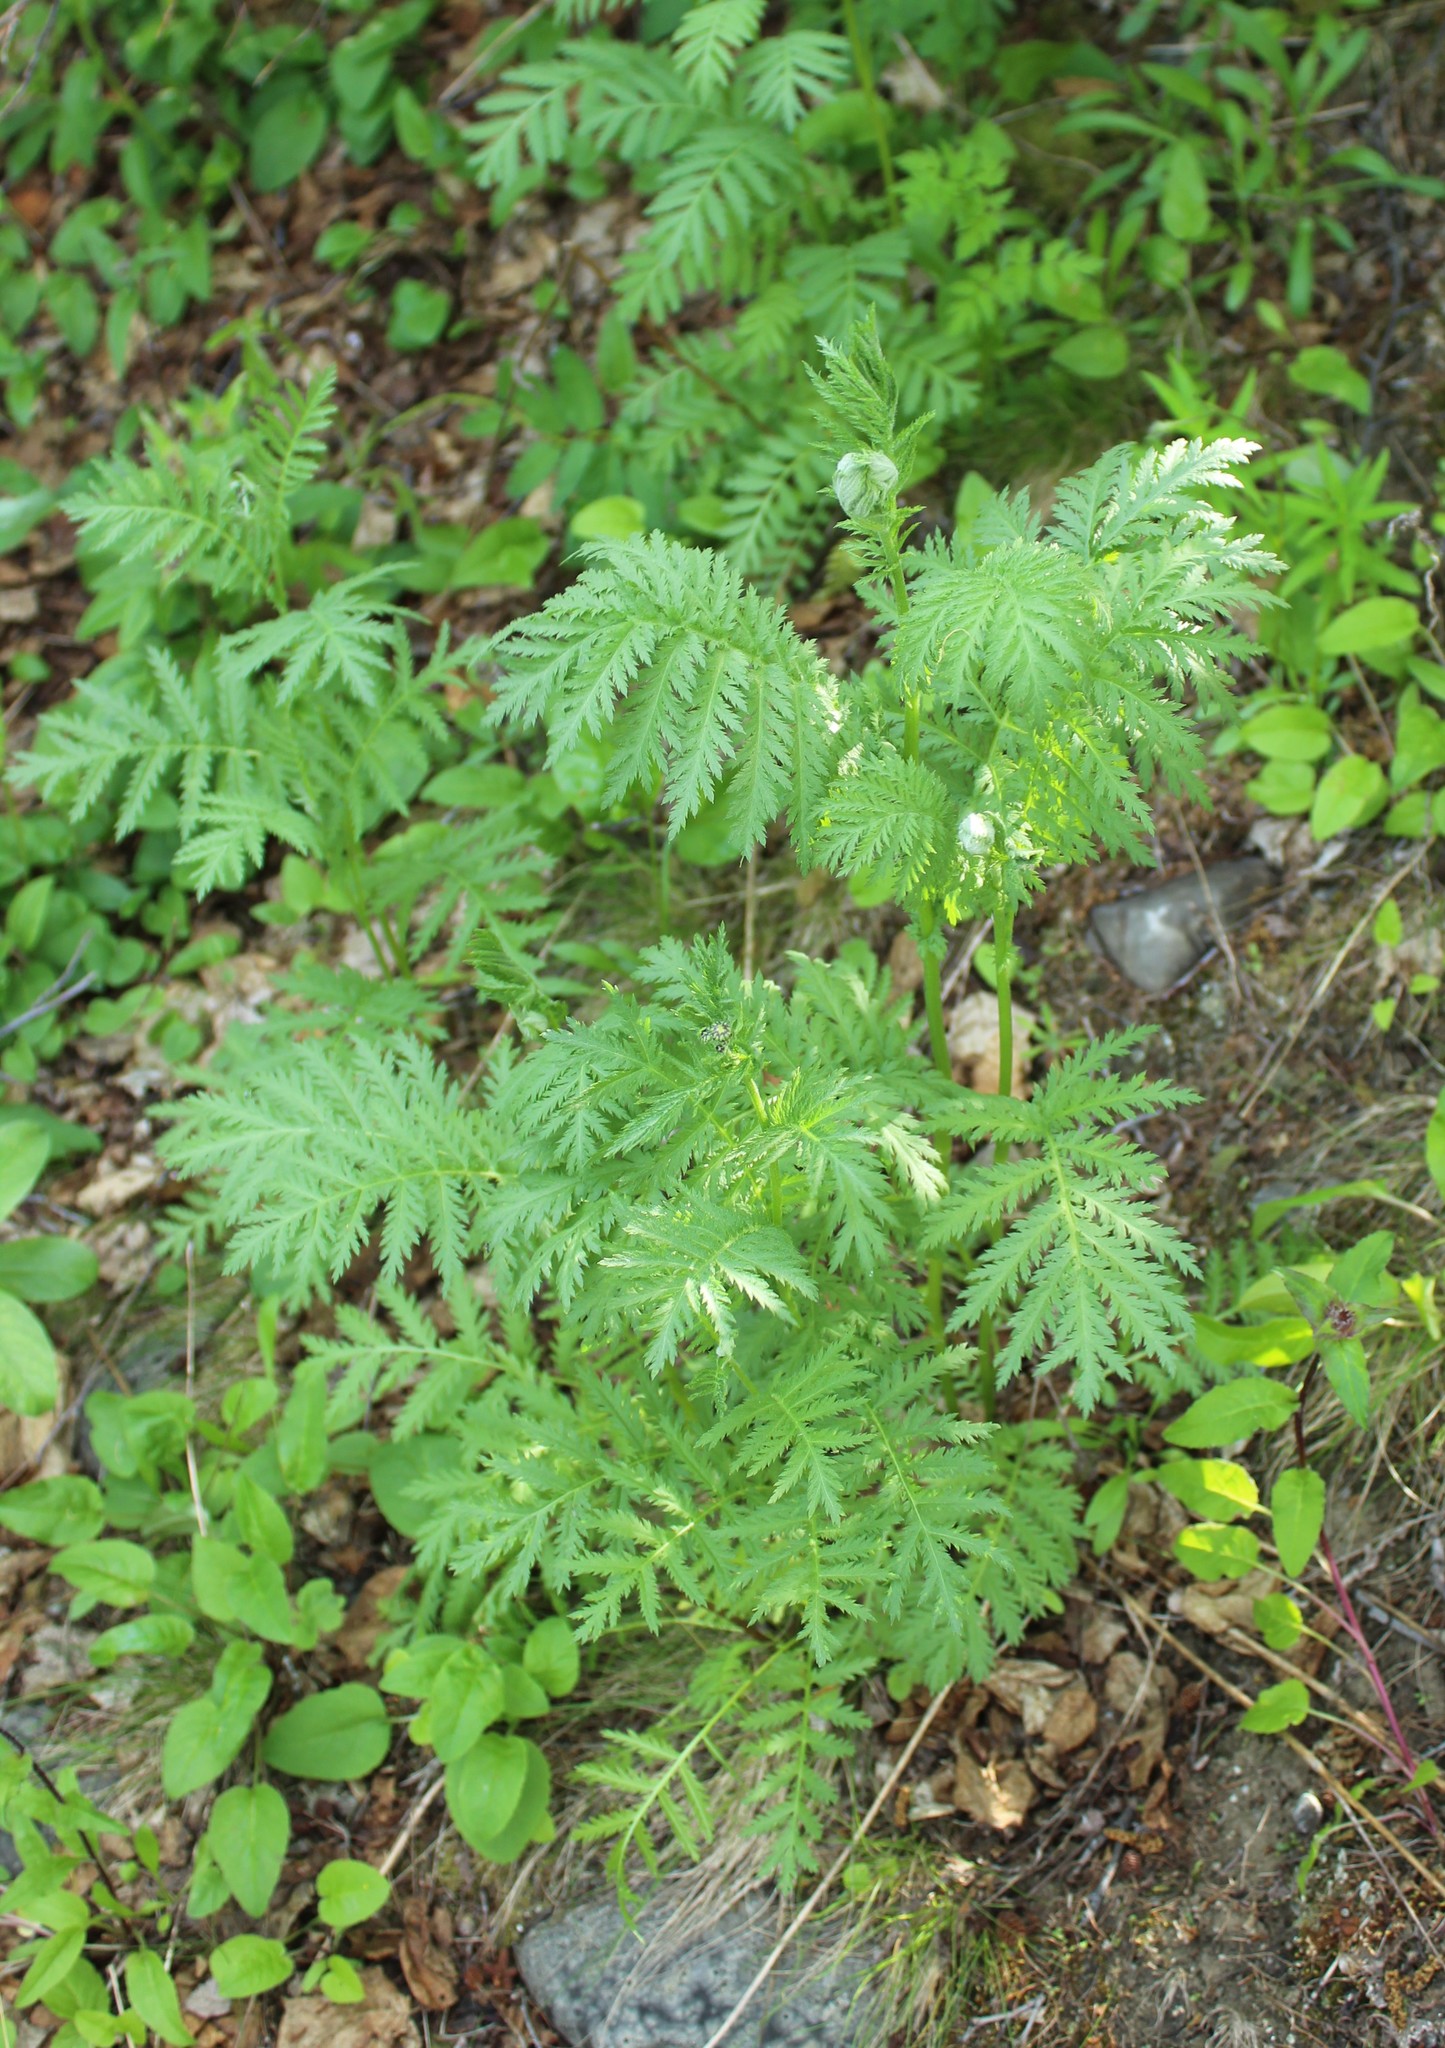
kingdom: Plantae
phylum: Tracheophyta
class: Magnoliopsida
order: Asterales
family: Asteraceae
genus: Tanacetum
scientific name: Tanacetum vulgare
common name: Common tansy
